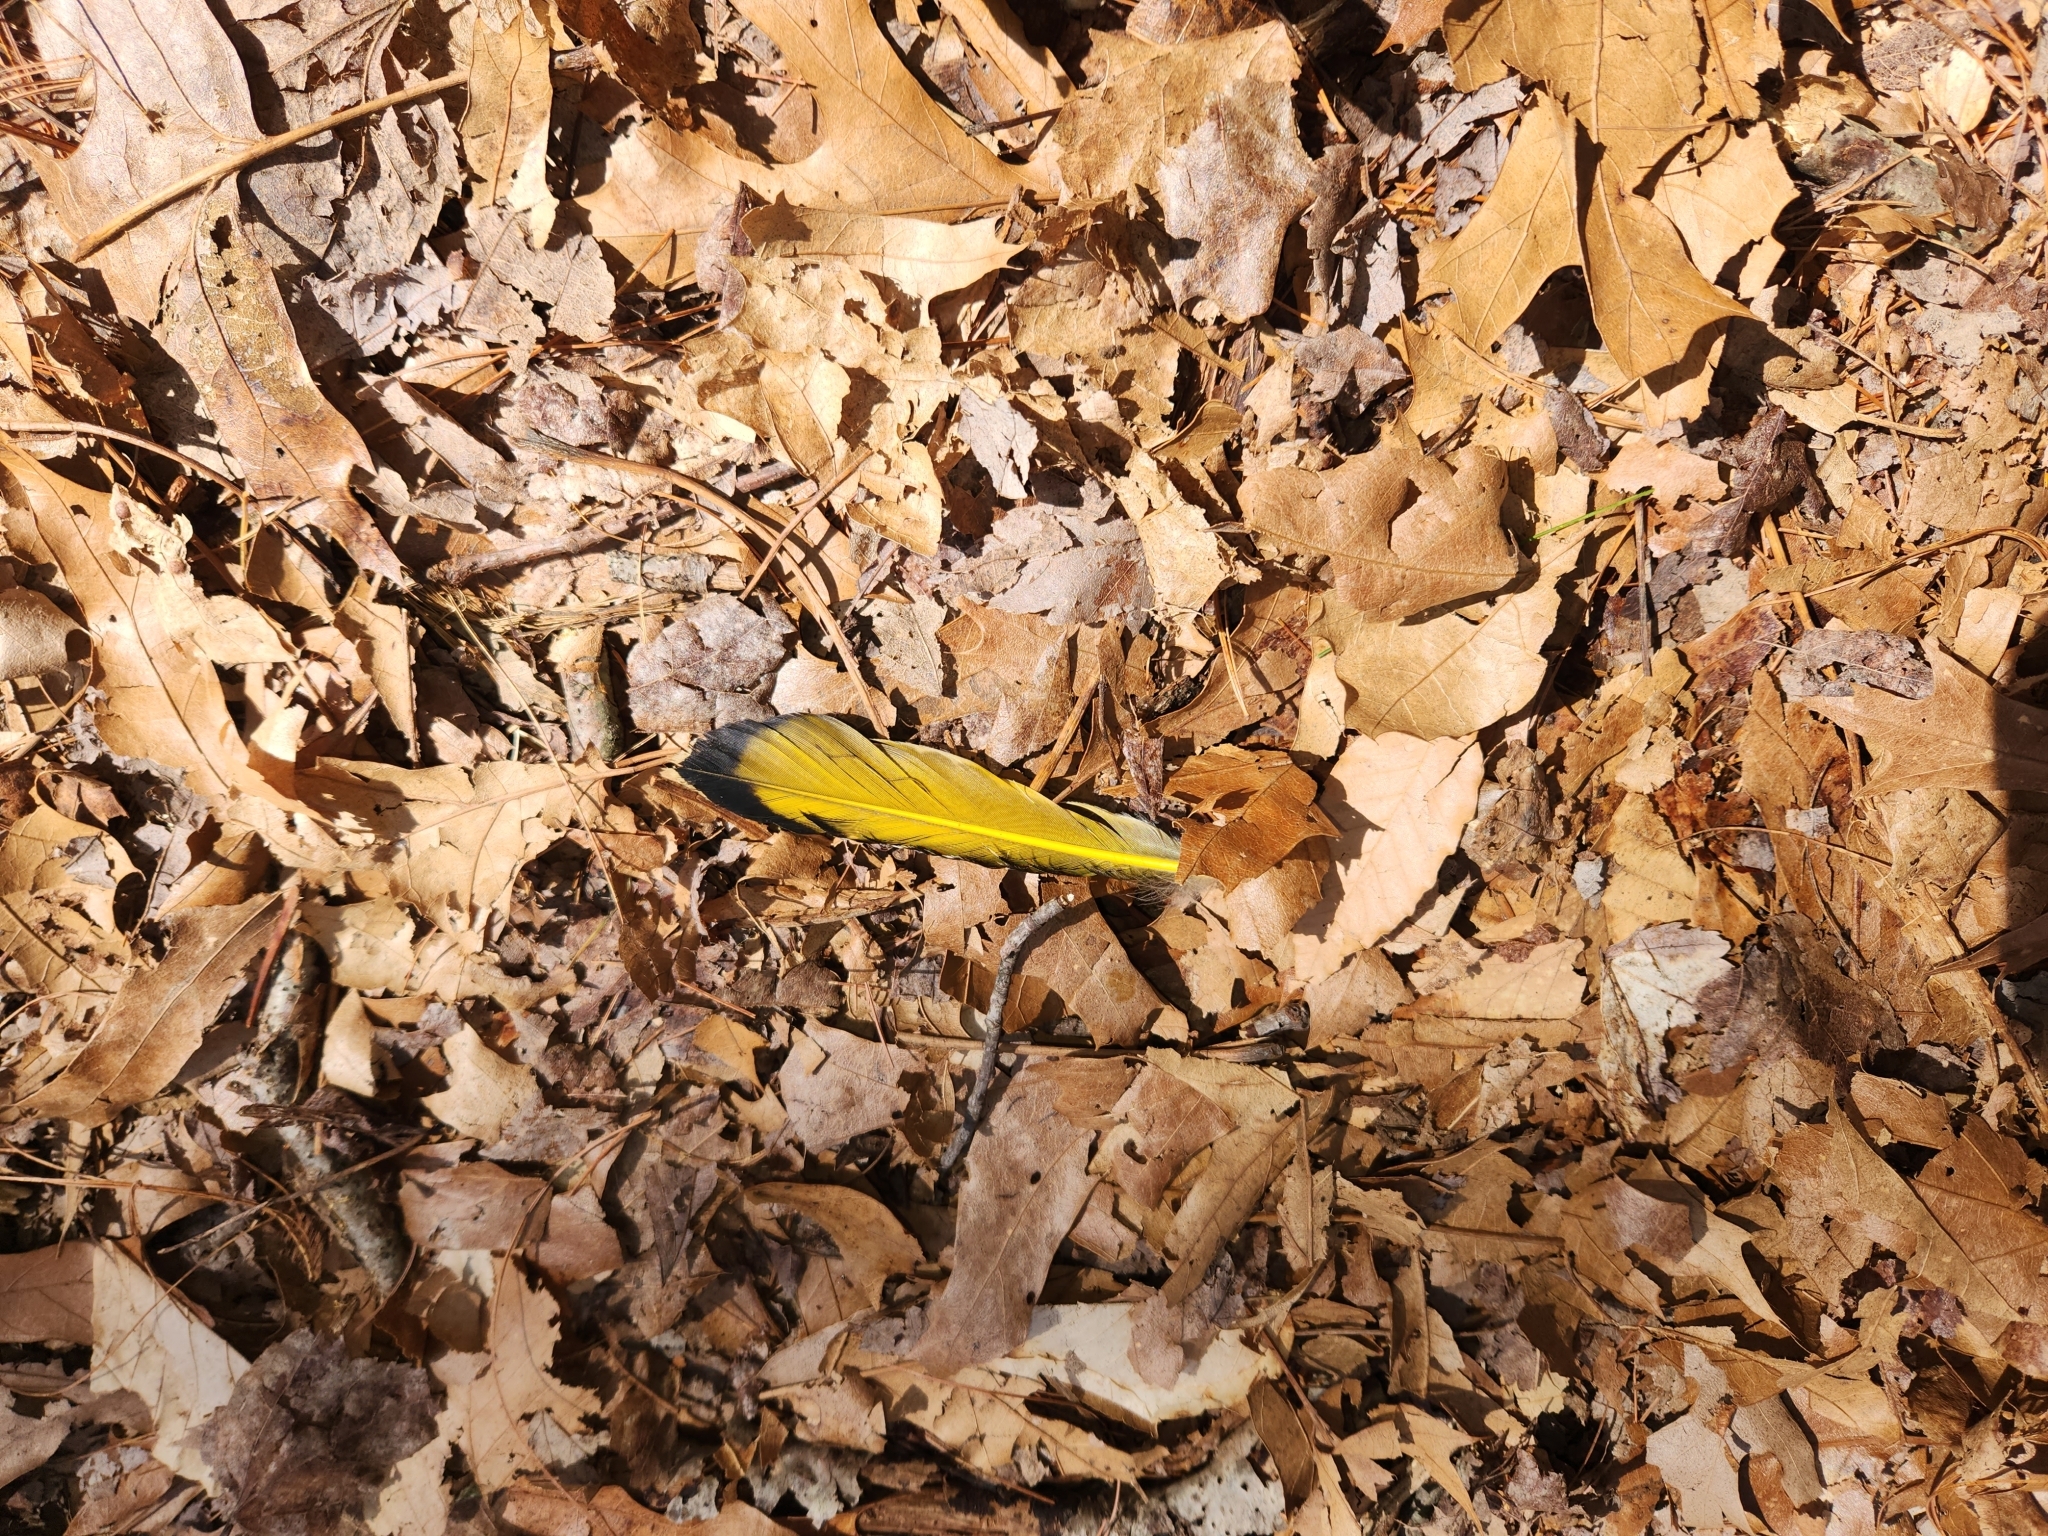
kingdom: Animalia
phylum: Chordata
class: Aves
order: Piciformes
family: Picidae
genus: Colaptes
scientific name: Colaptes auratus
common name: Northern flicker
